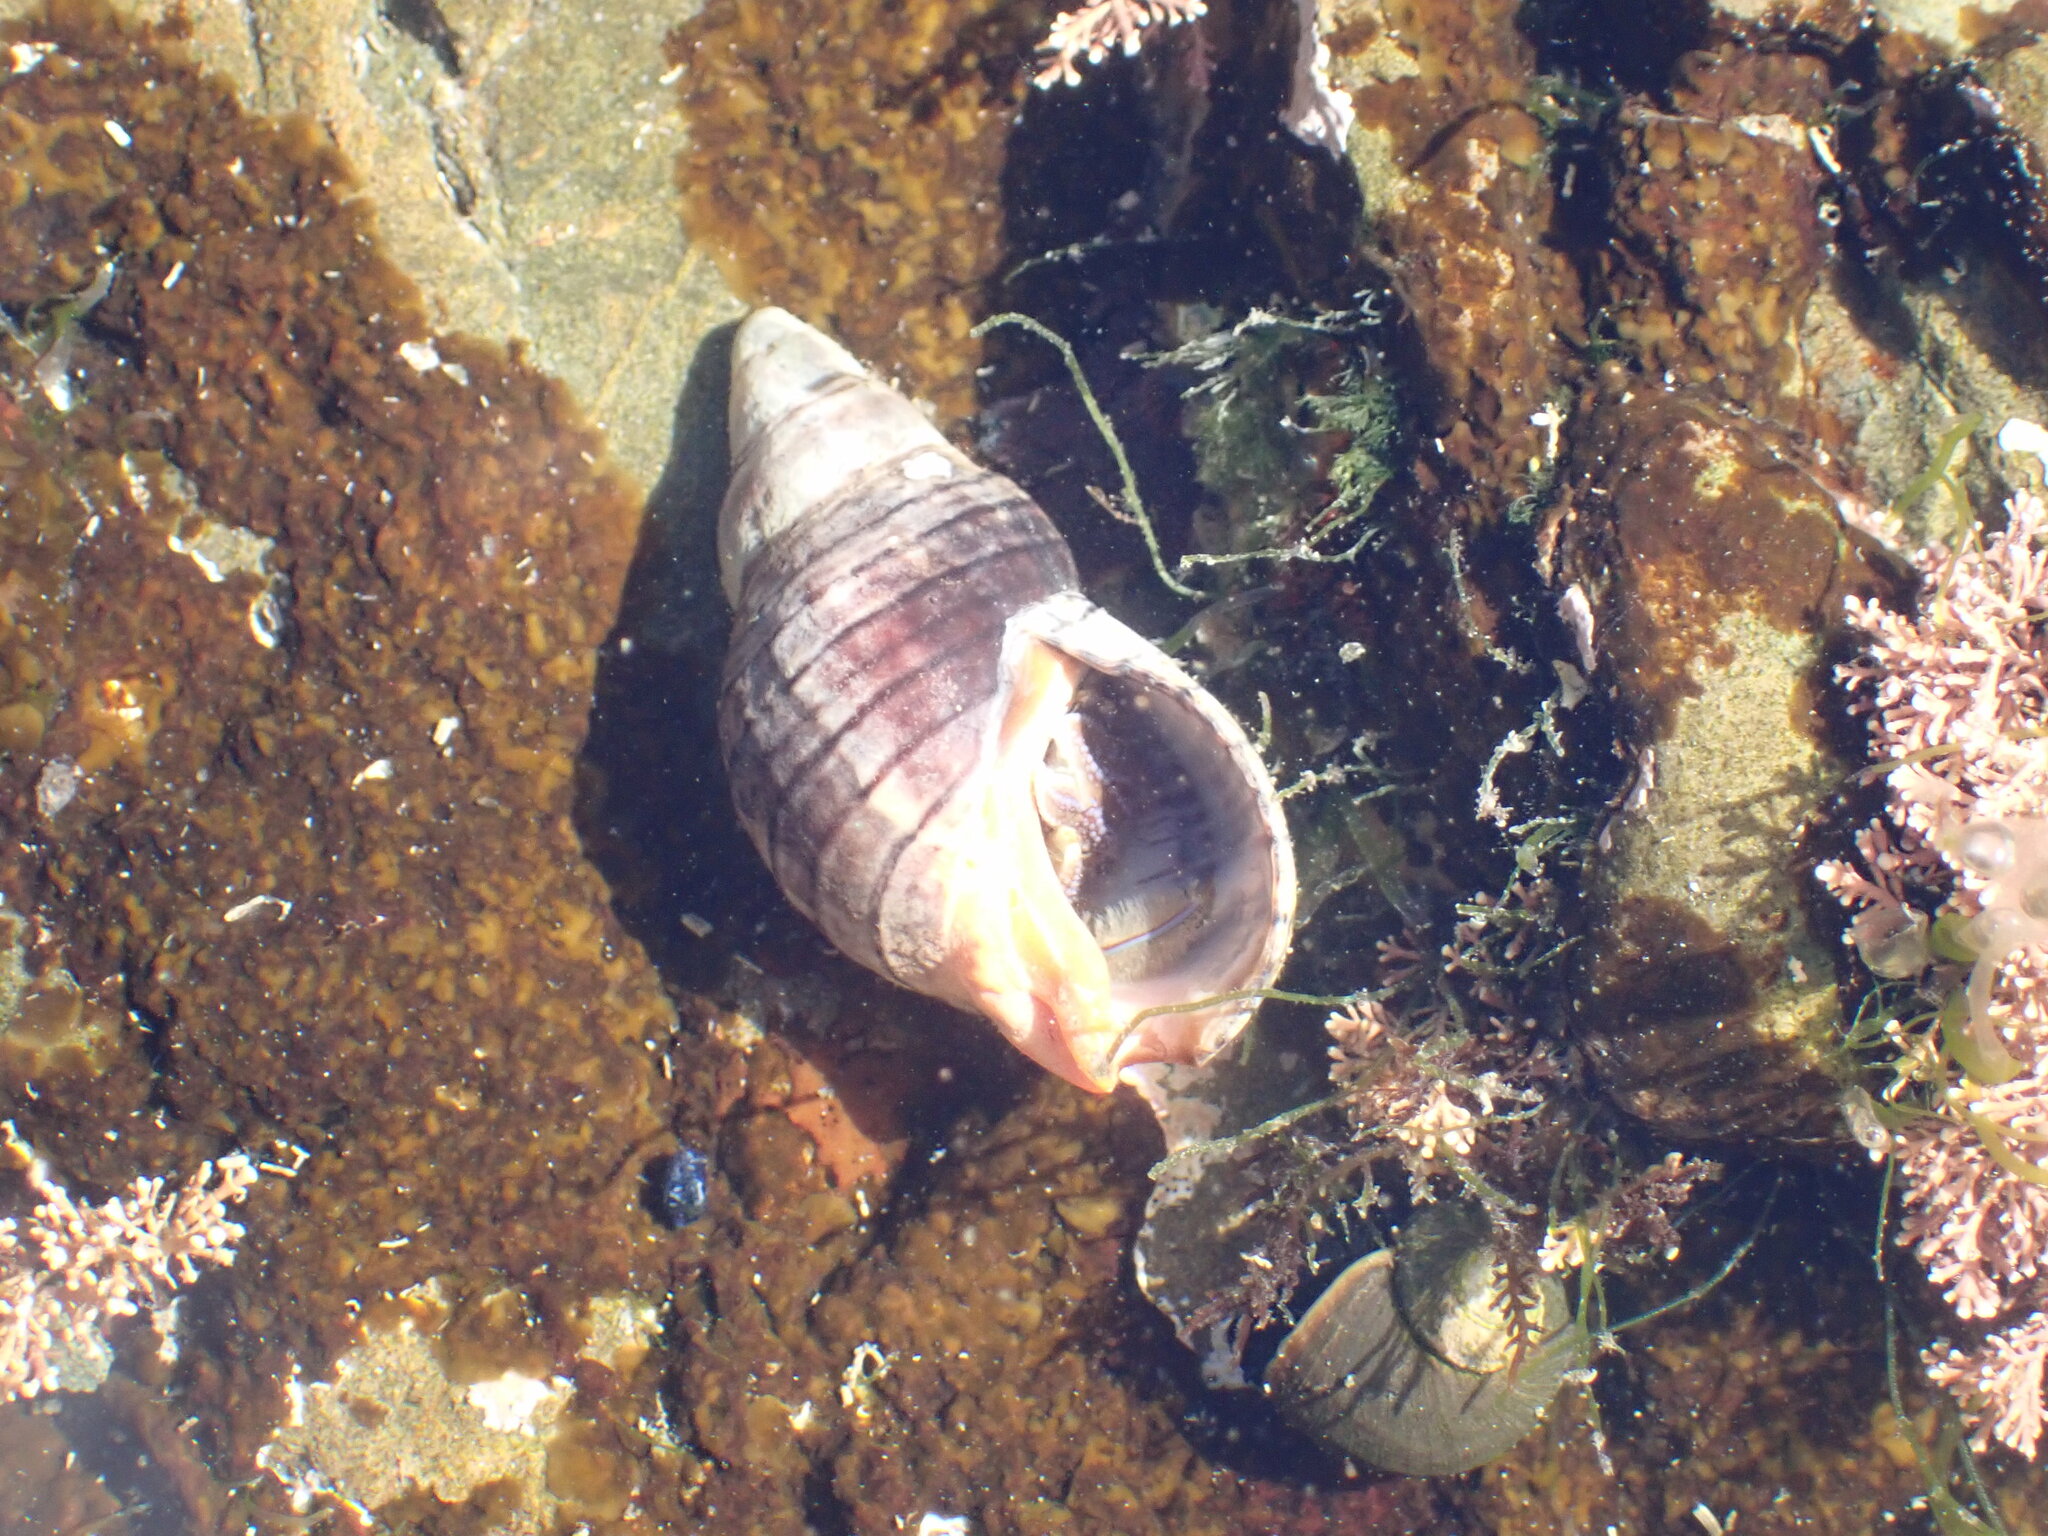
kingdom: Animalia
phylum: Mollusca
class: Gastropoda
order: Neogastropoda
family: Cominellidae
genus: Cominella
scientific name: Cominella virgata
